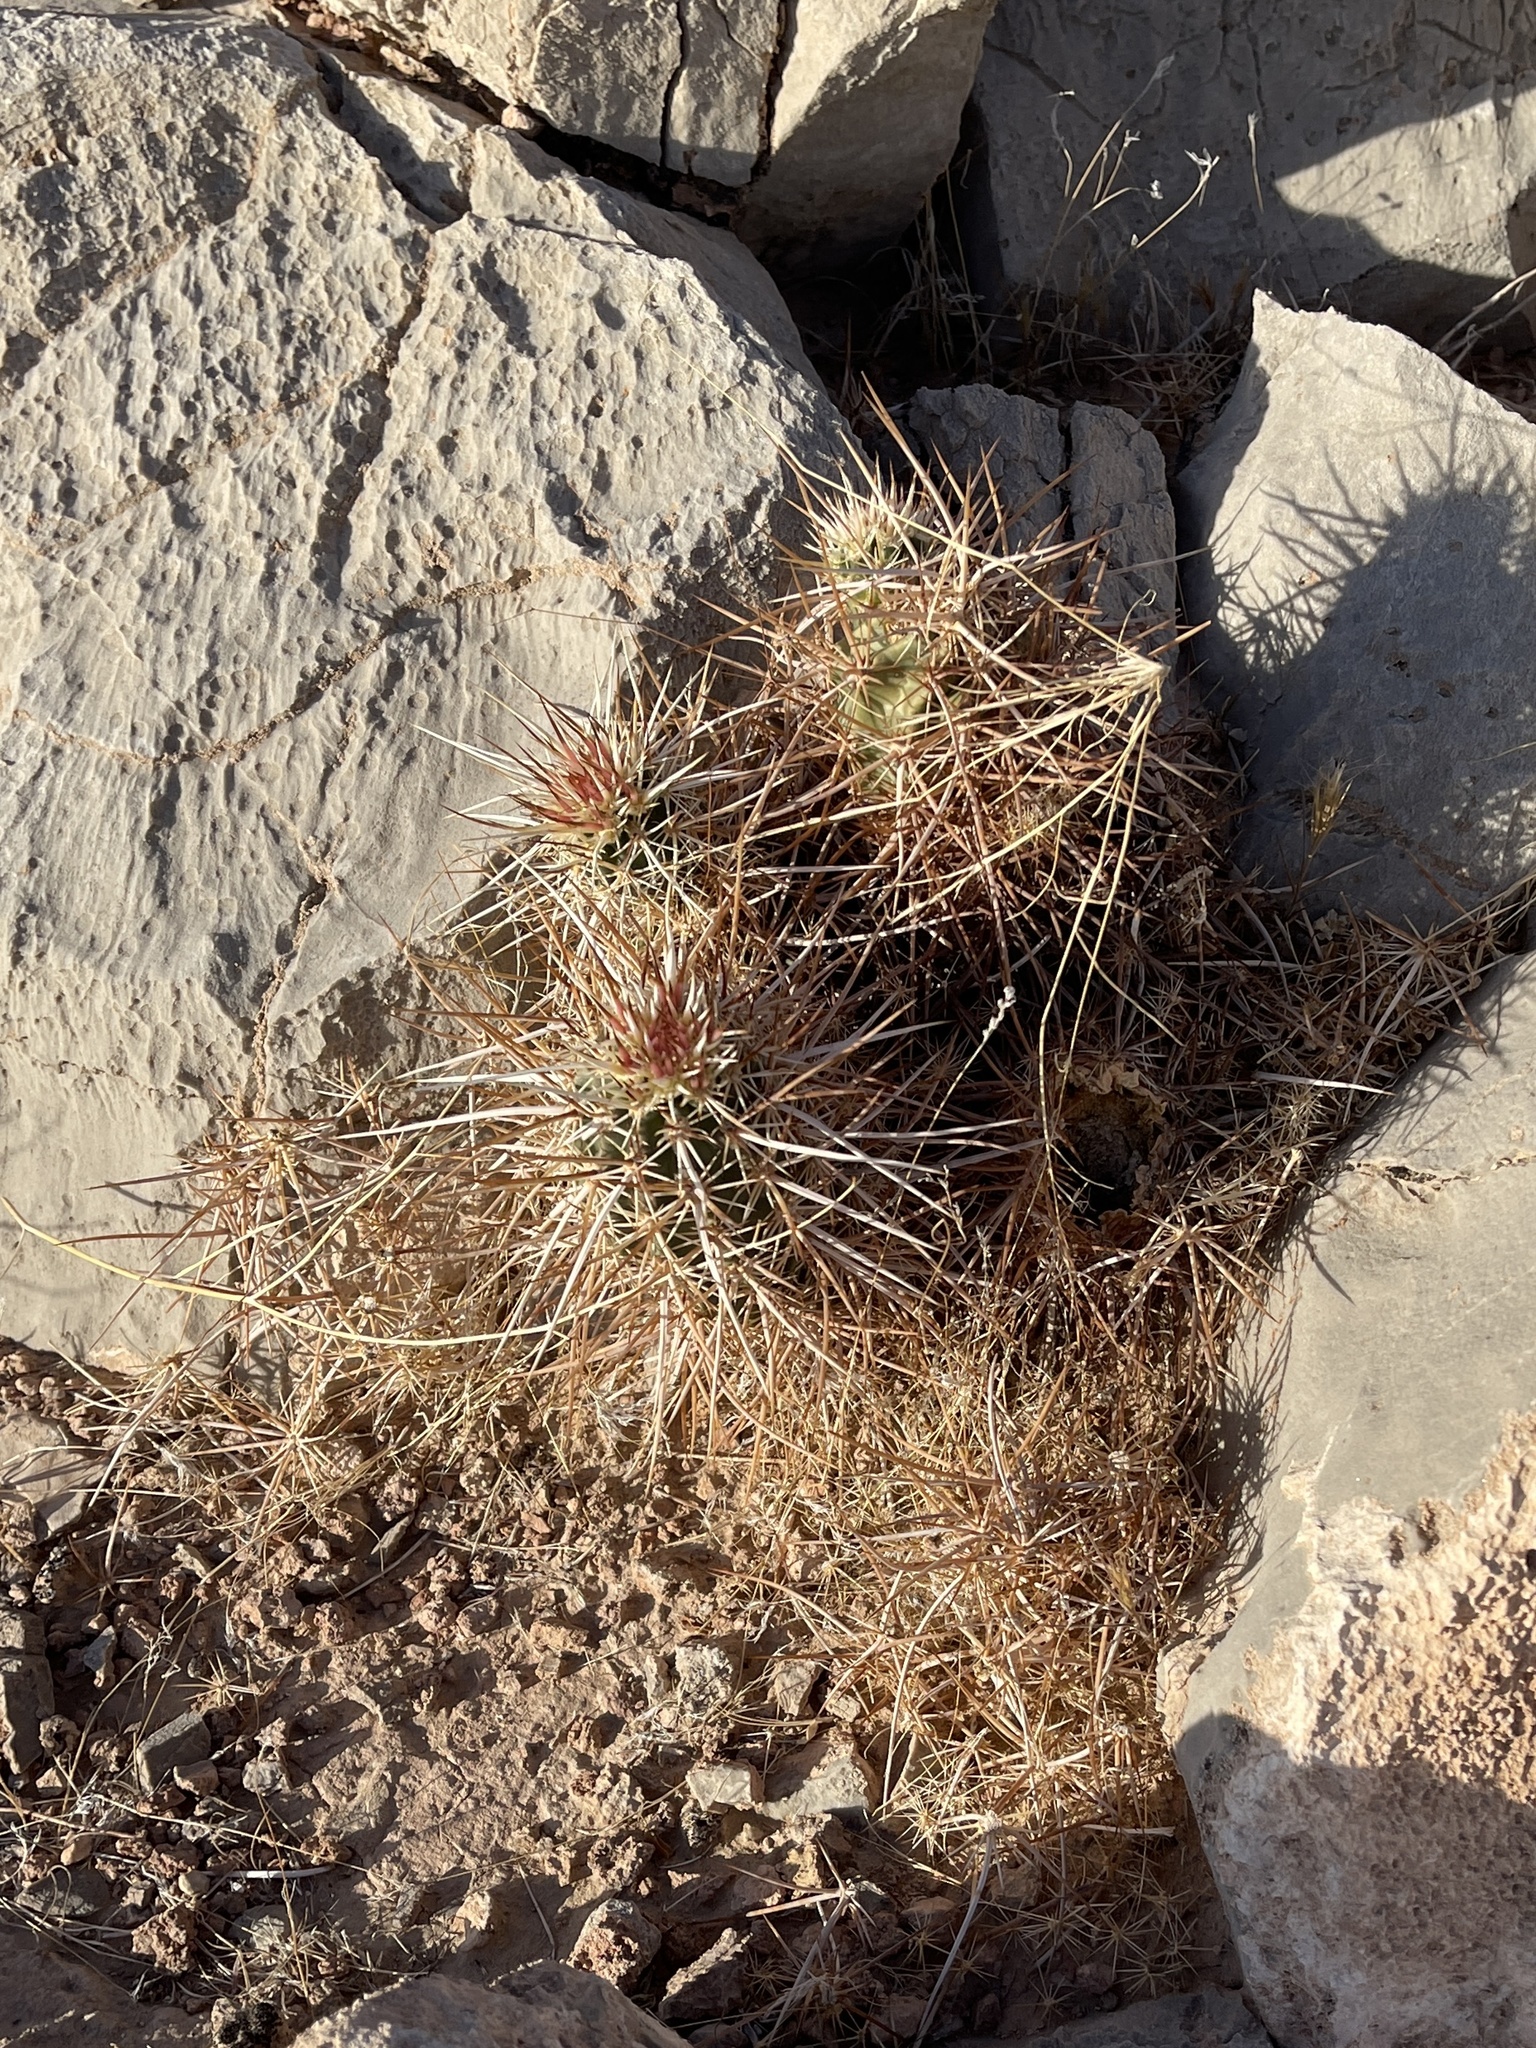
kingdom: Plantae
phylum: Tracheophyta
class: Magnoliopsida
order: Caryophyllales
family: Cactaceae
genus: Echinocereus
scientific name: Echinocereus engelmannii
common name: Engelmann's hedgehog cactus
